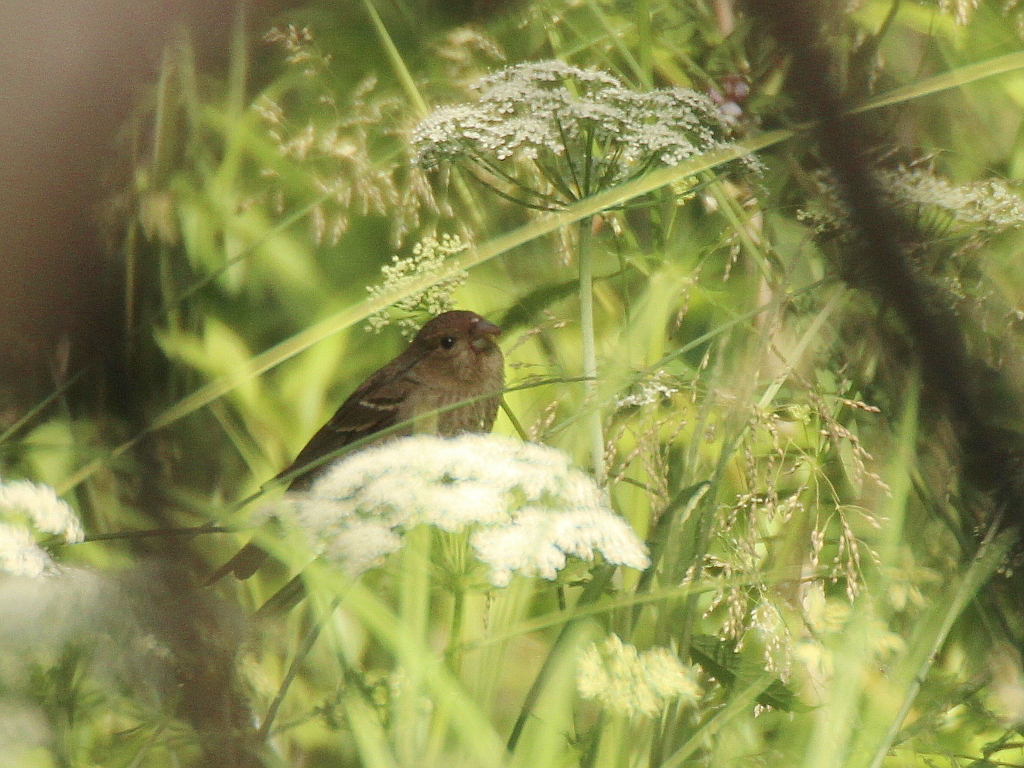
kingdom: Animalia
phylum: Chordata
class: Aves
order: Passeriformes
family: Fringillidae
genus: Carpodacus
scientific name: Carpodacus erythrinus
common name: Common rosefinch
